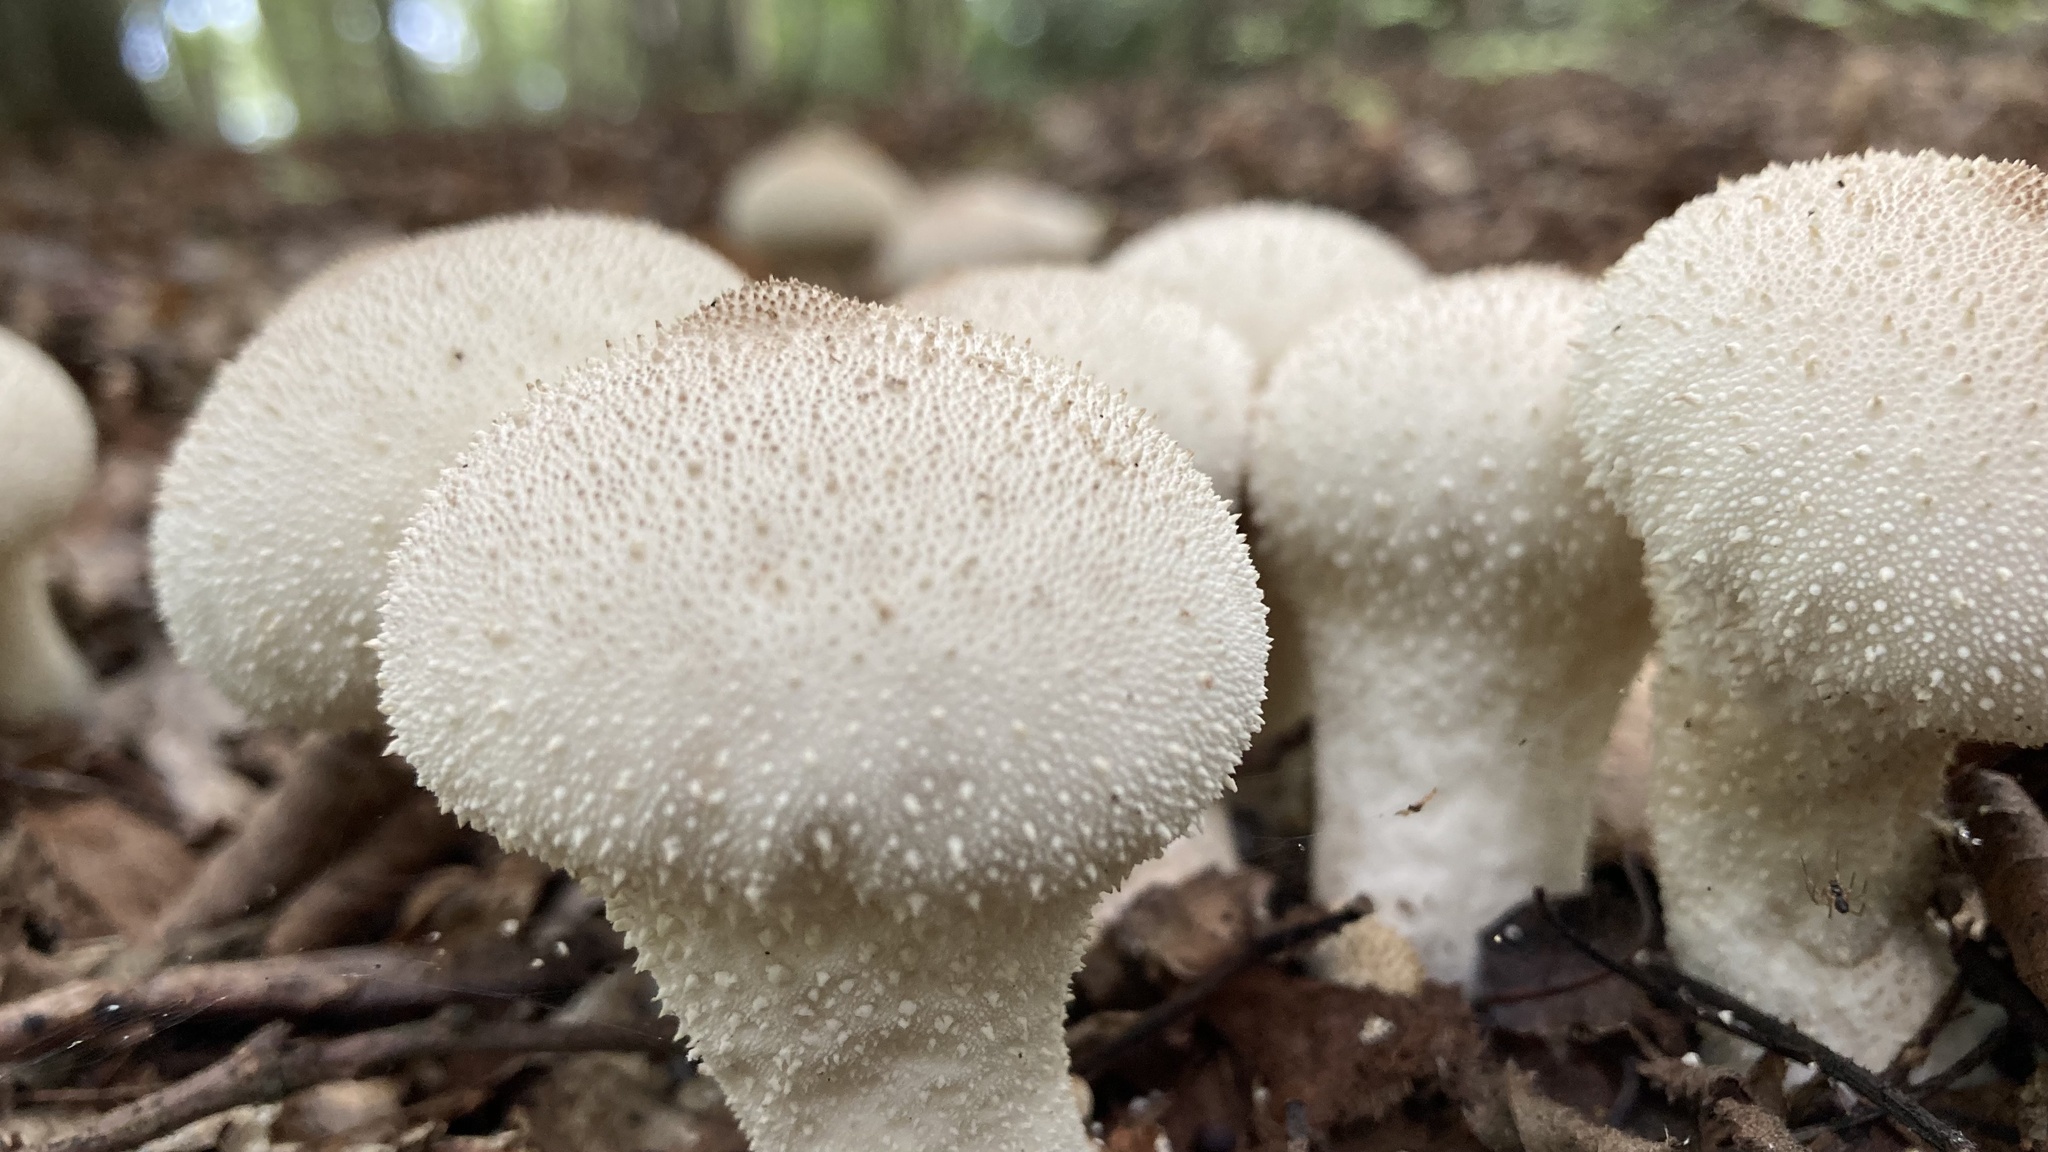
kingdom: Fungi
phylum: Basidiomycota
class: Agaricomycetes
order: Agaricales
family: Lycoperdaceae
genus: Lycoperdon
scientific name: Lycoperdon perlatum
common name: Common puffball
